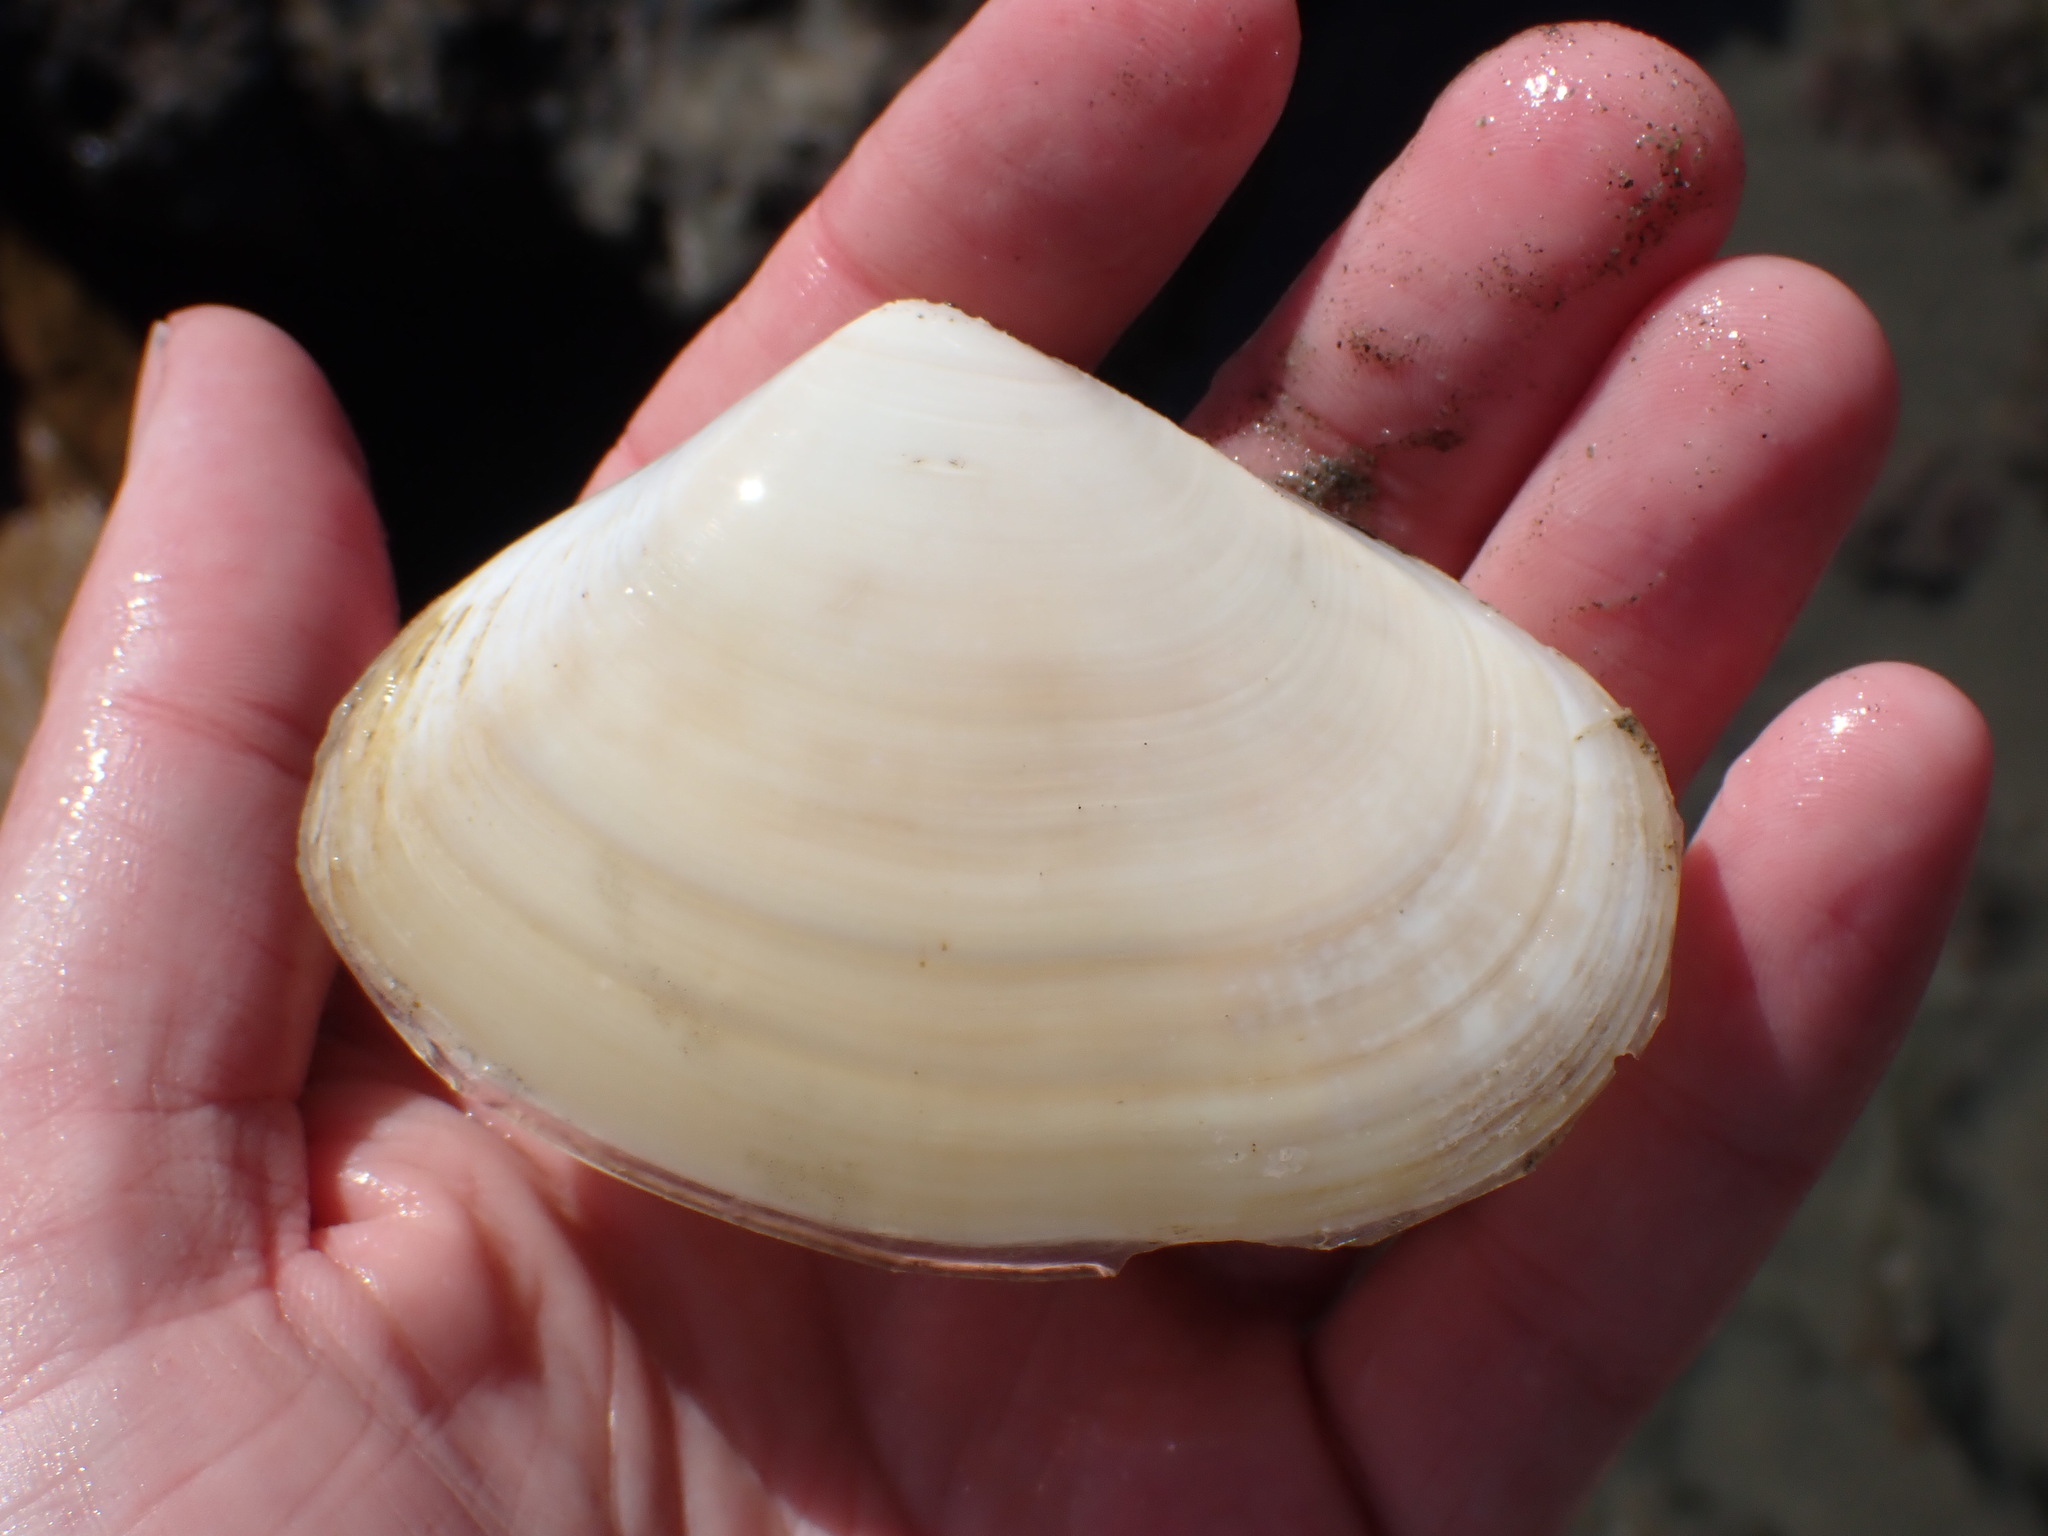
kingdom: Animalia
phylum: Mollusca
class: Bivalvia
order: Venerida
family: Mesodesmatidae
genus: Paphies
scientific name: Paphies donacina
